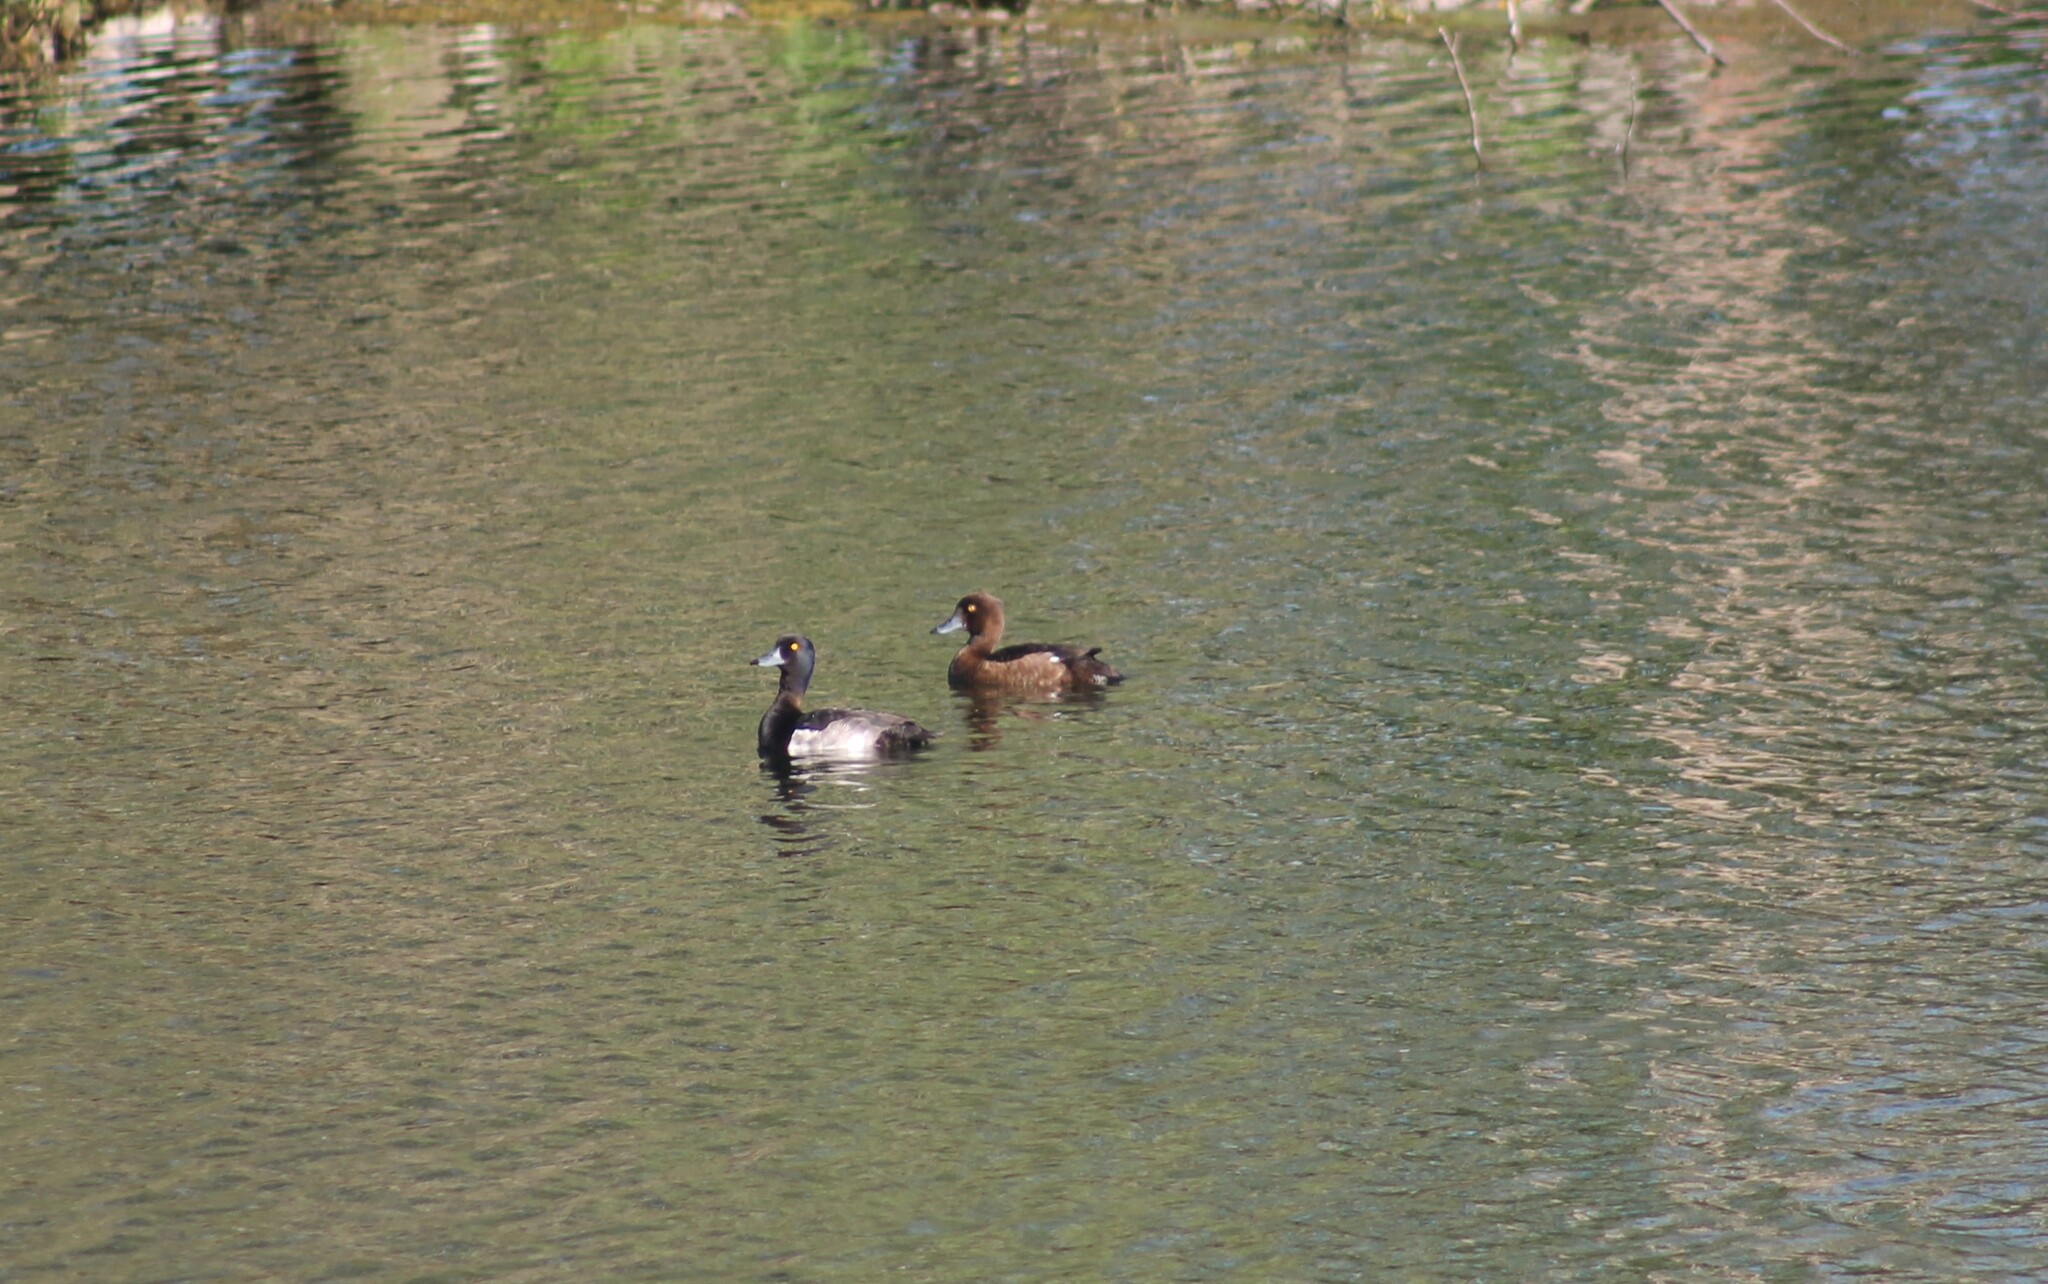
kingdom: Animalia
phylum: Chordata
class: Aves
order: Anseriformes
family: Anatidae
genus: Aythya
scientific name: Aythya fuligula
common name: Tufted duck
